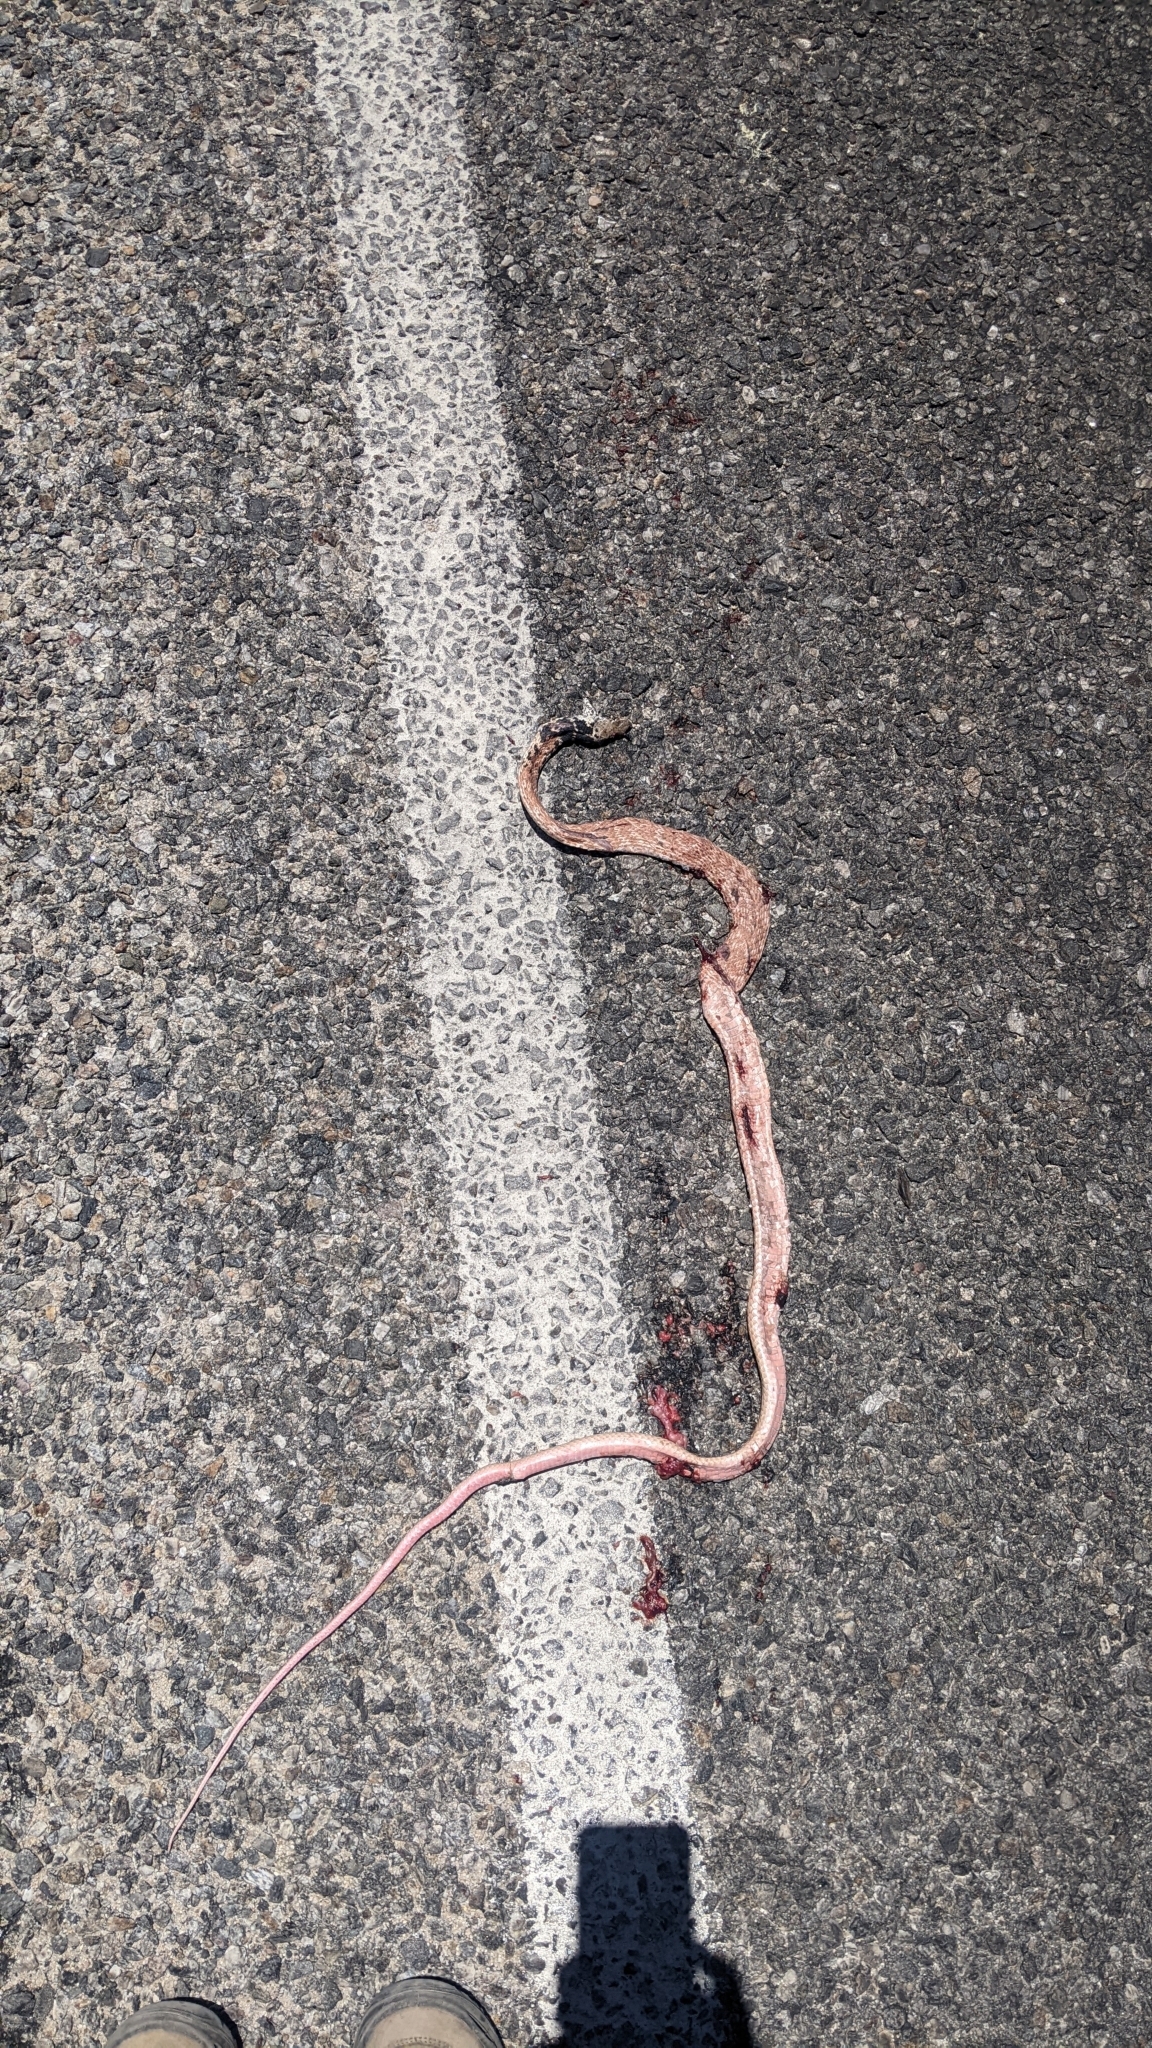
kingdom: Animalia
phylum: Chordata
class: Squamata
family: Colubridae
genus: Masticophis
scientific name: Masticophis flagellum
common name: Coachwhip
